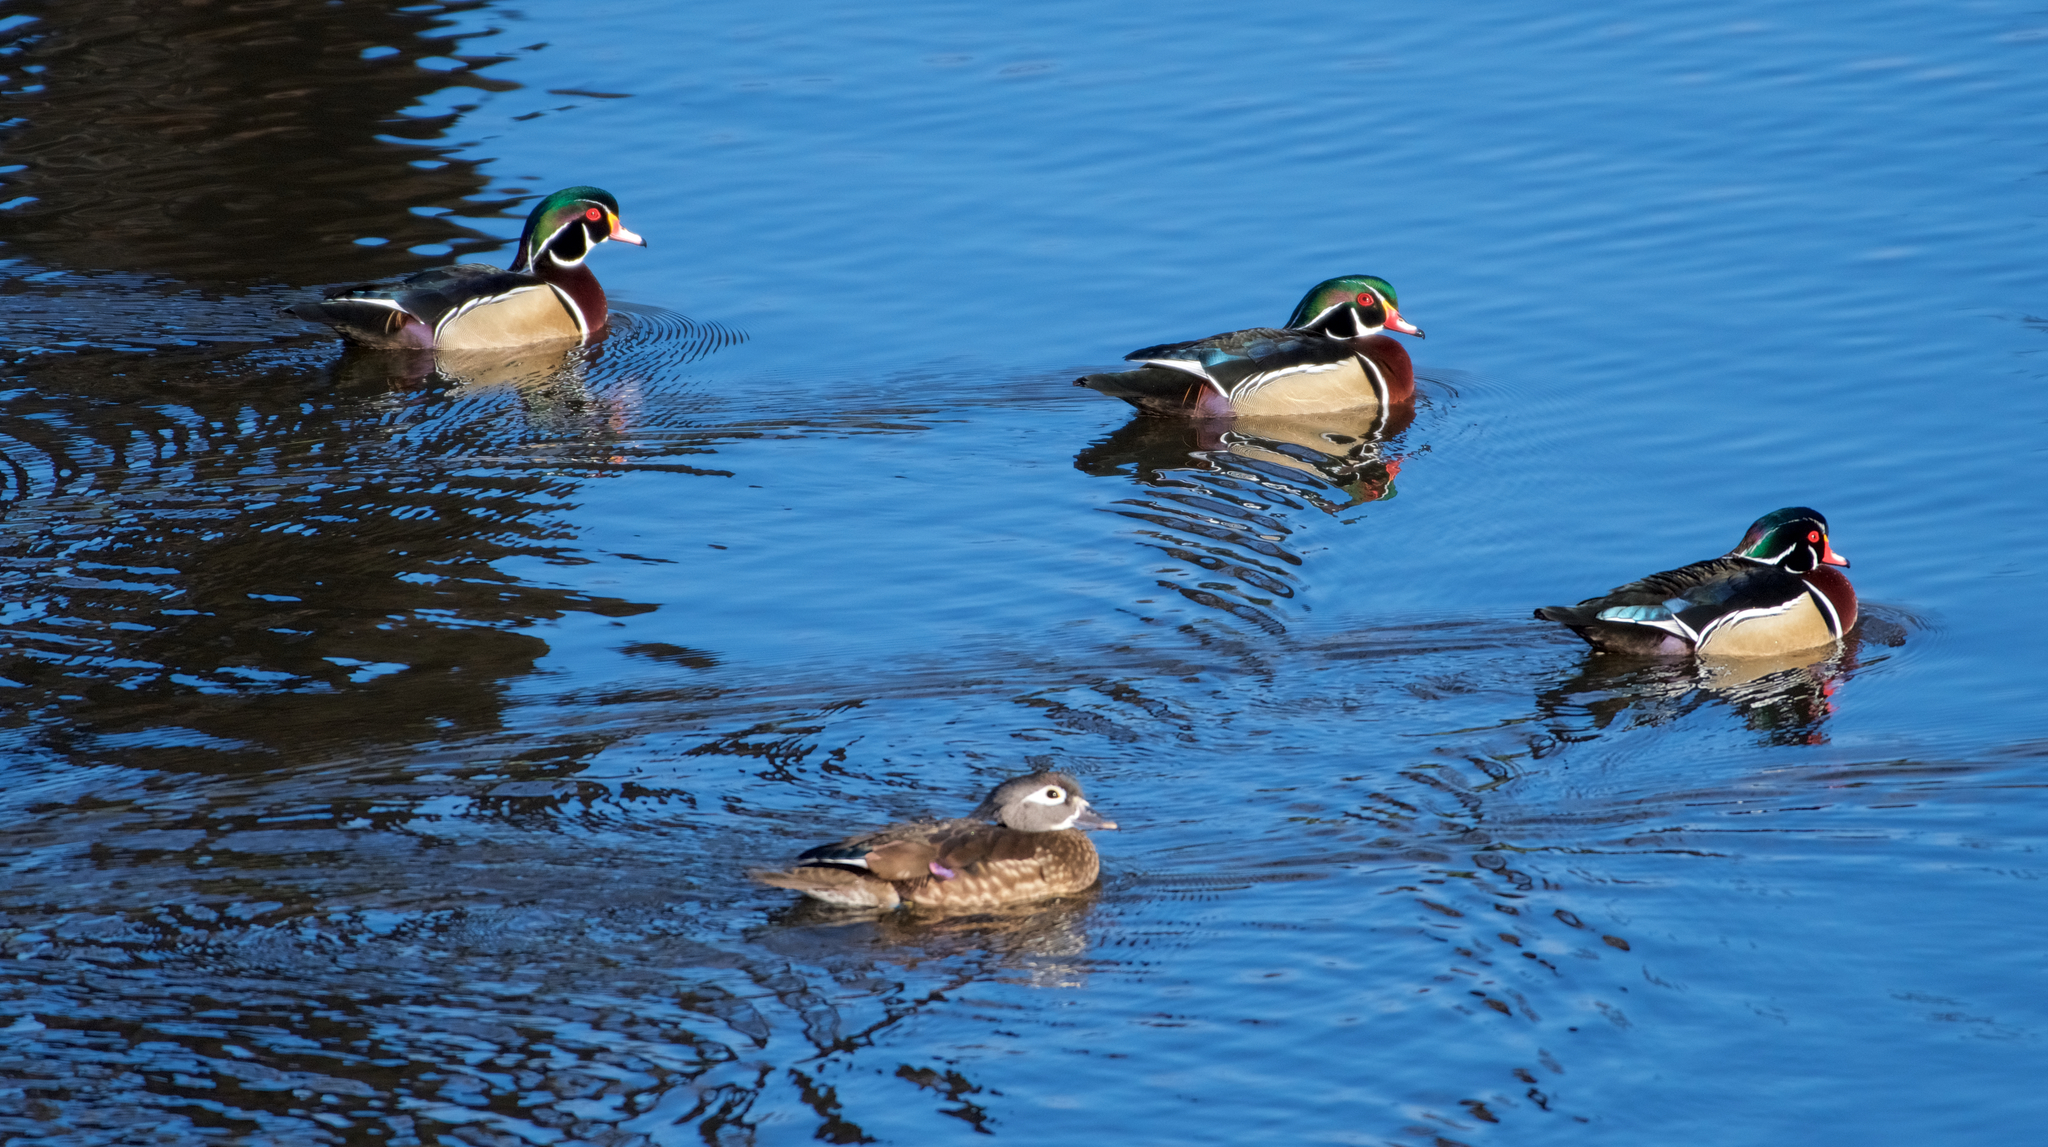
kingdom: Animalia
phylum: Chordata
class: Aves
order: Anseriformes
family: Anatidae
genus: Aix
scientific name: Aix sponsa
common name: Wood duck
